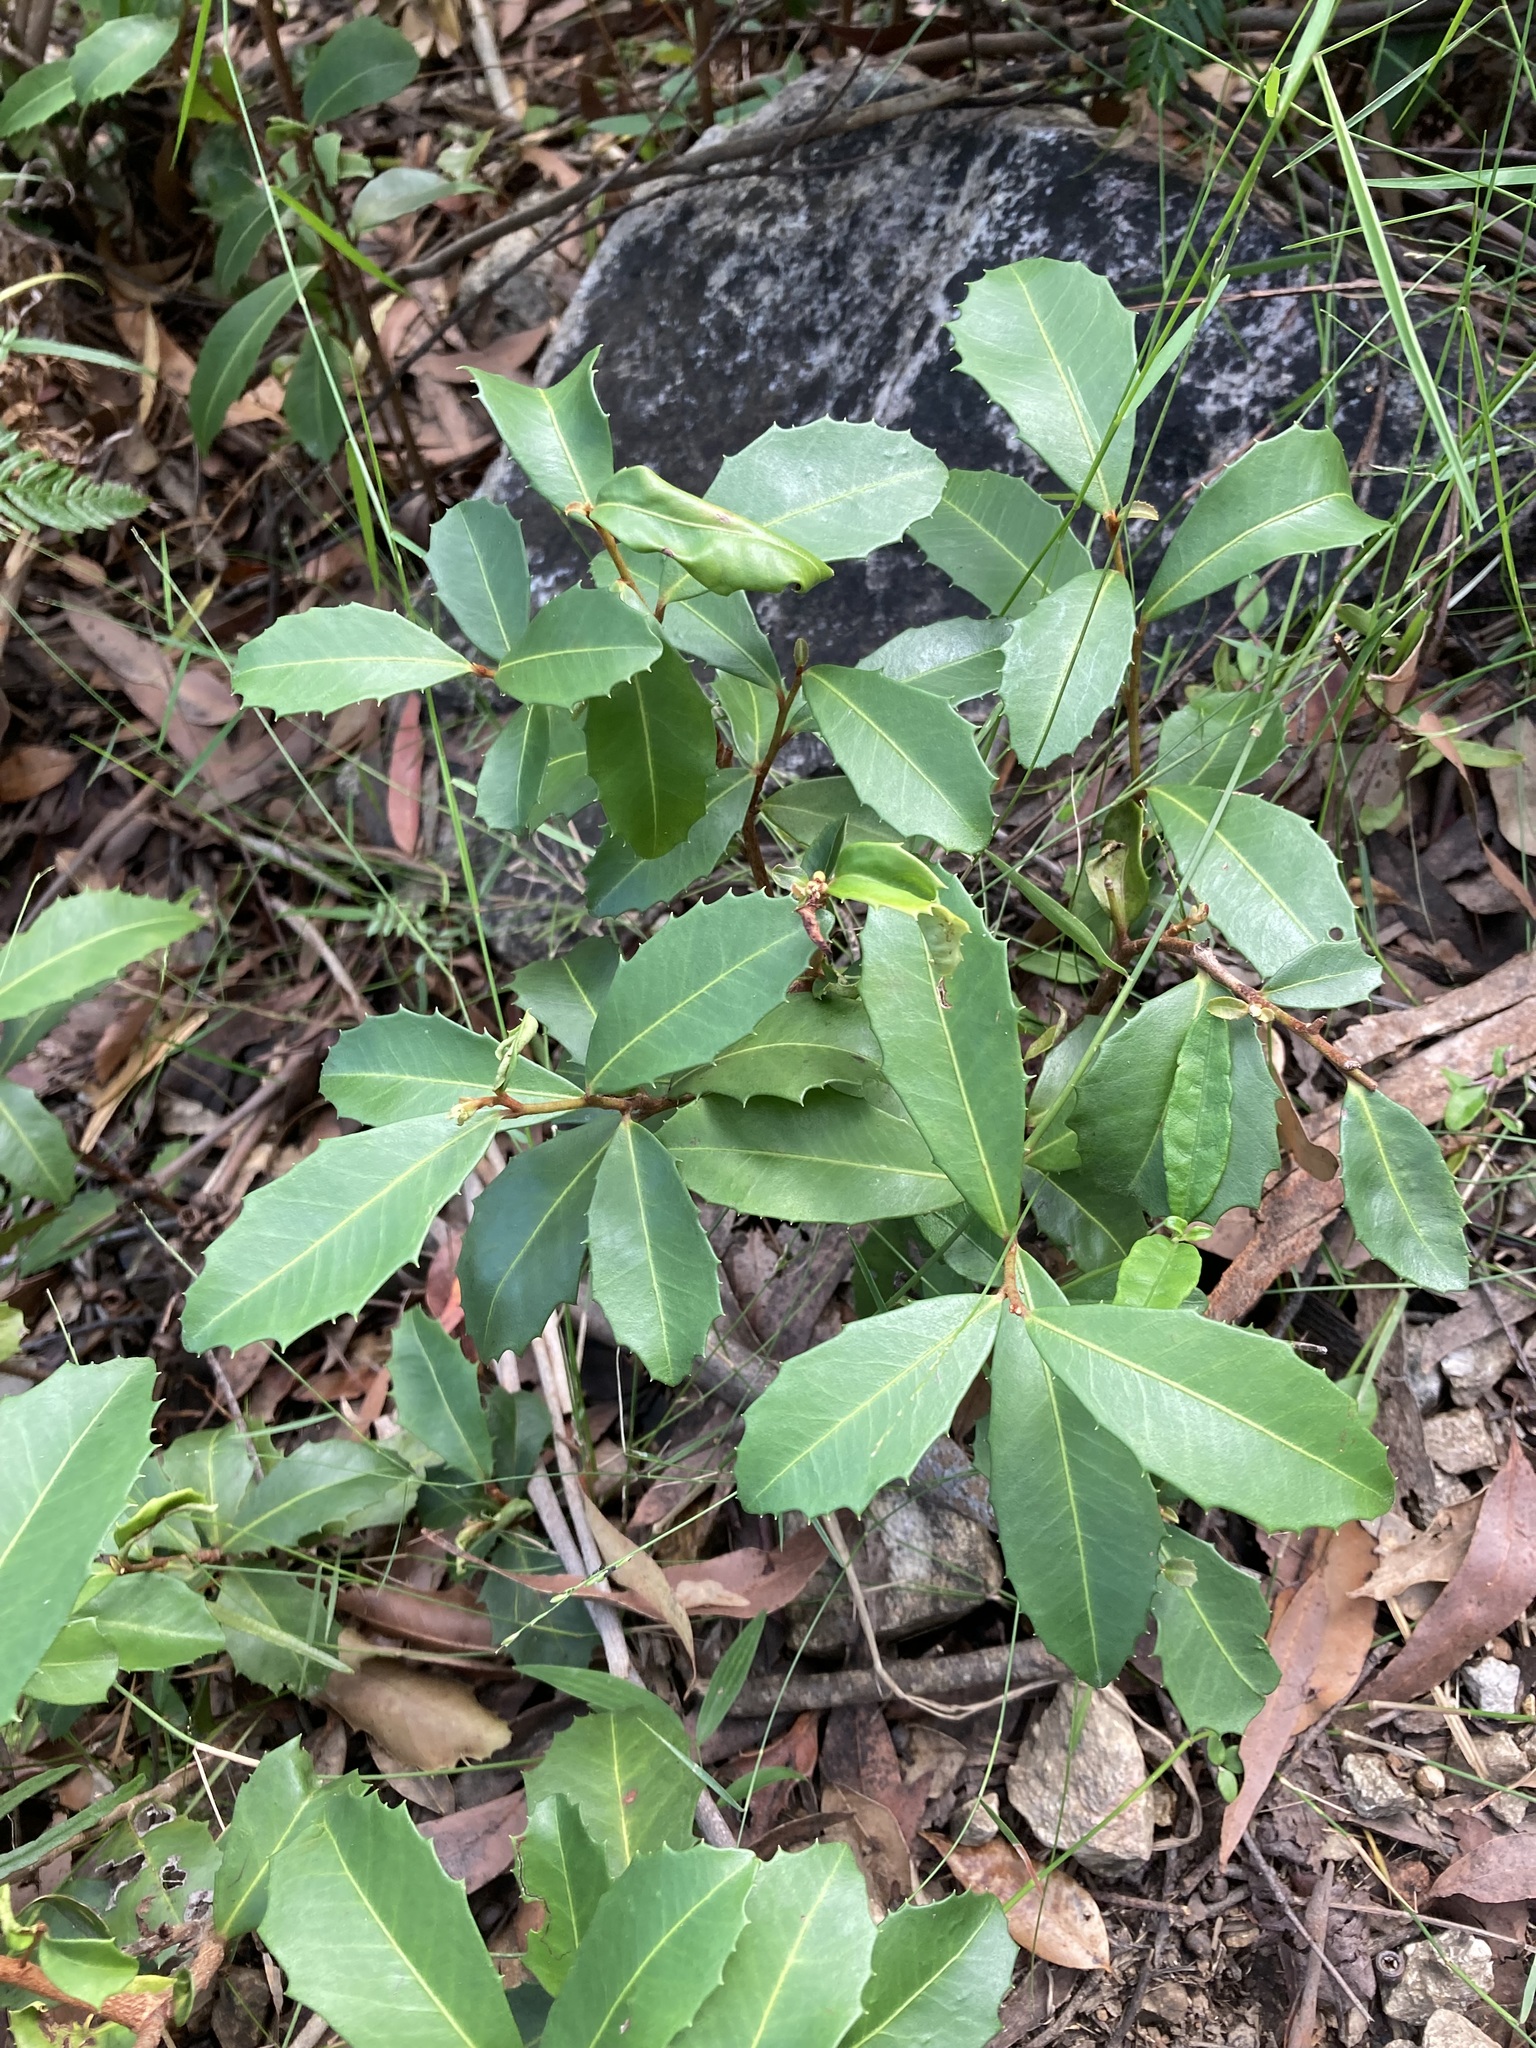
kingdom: Plantae
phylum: Tracheophyta
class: Magnoliopsida
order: Ericales
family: Primulaceae
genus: Myrsine
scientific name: Myrsine variabilis
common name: Brush muttonwood
